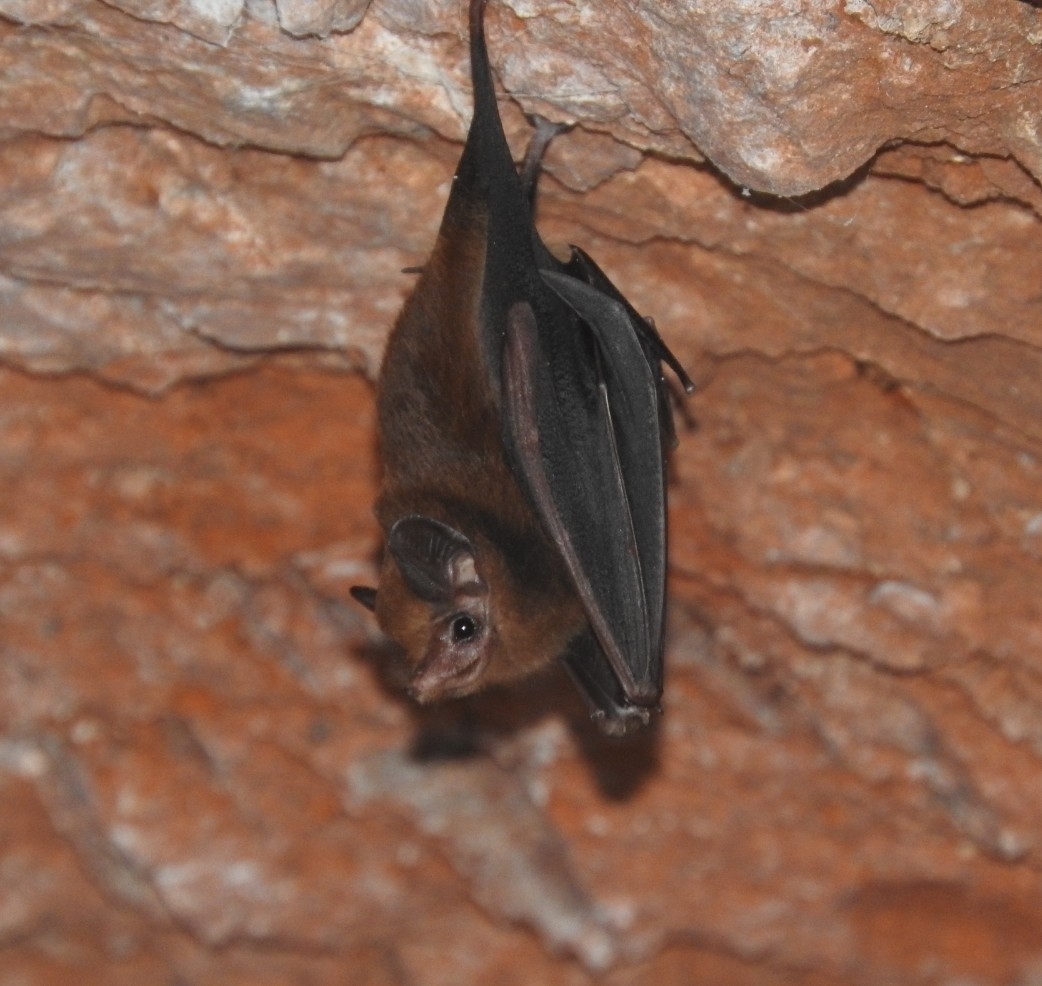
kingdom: Animalia
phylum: Chordata
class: Mammalia
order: Chiroptera
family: Emballonuridae
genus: Peropteryx
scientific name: Peropteryx macrotis
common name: Lesser dog-like bat
